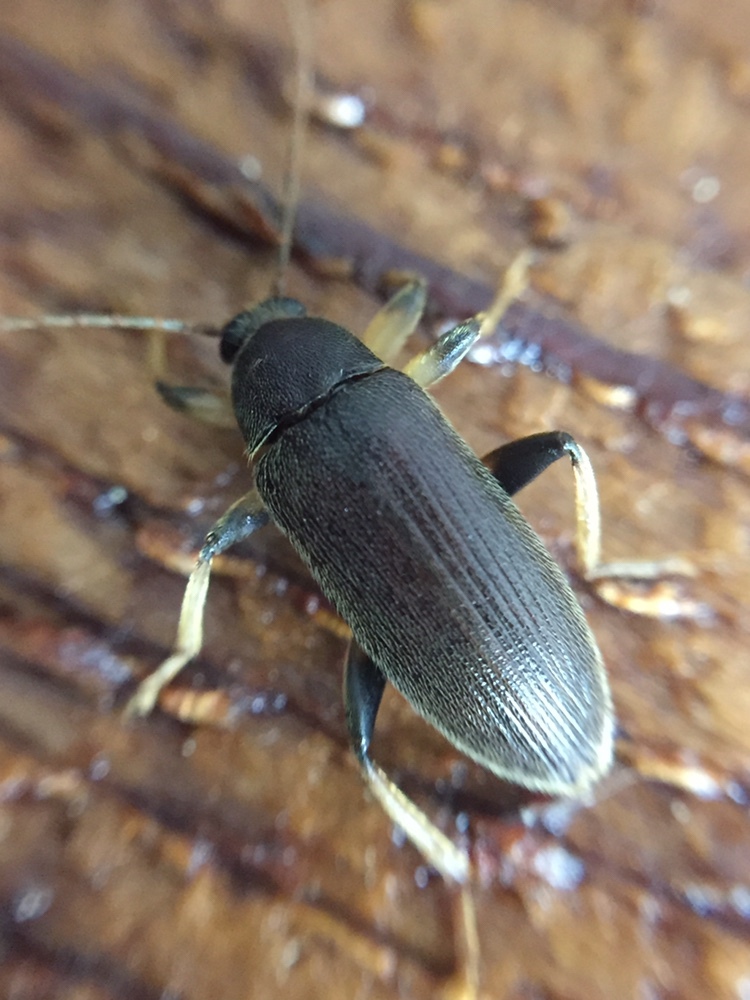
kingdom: Animalia
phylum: Arthropoda
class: Insecta
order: Coleoptera
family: Tenebrionidae
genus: Homotrysis
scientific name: Homotrysis
